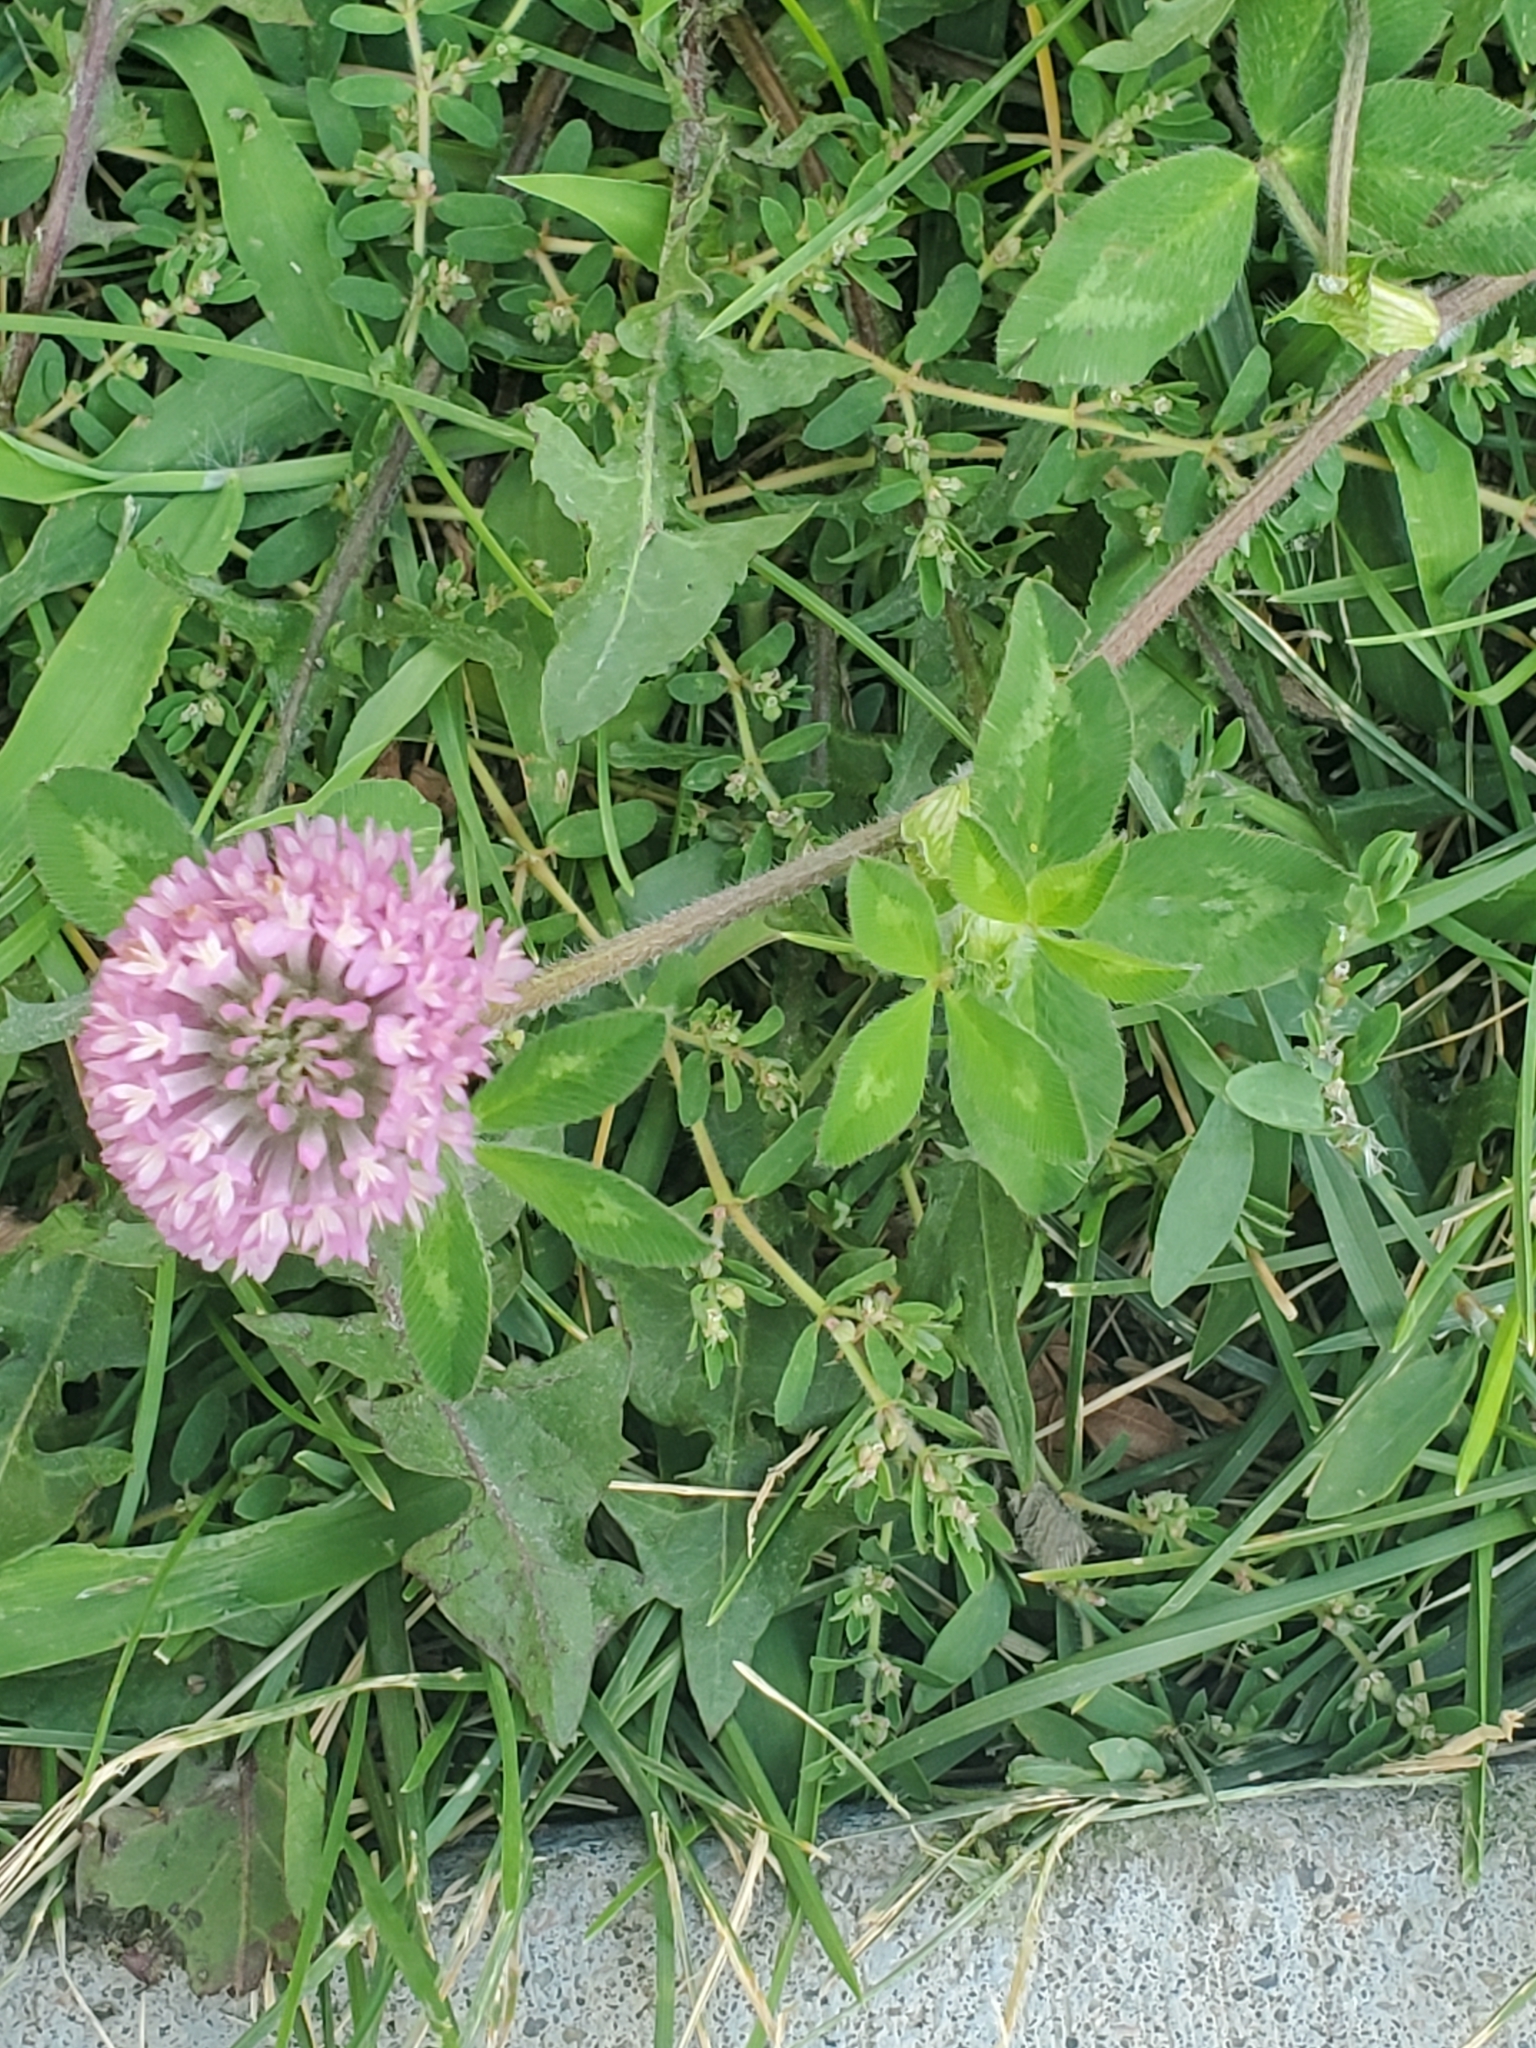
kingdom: Plantae
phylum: Tracheophyta
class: Magnoliopsida
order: Fabales
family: Fabaceae
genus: Trifolium
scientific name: Trifolium pratense
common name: Red clover
